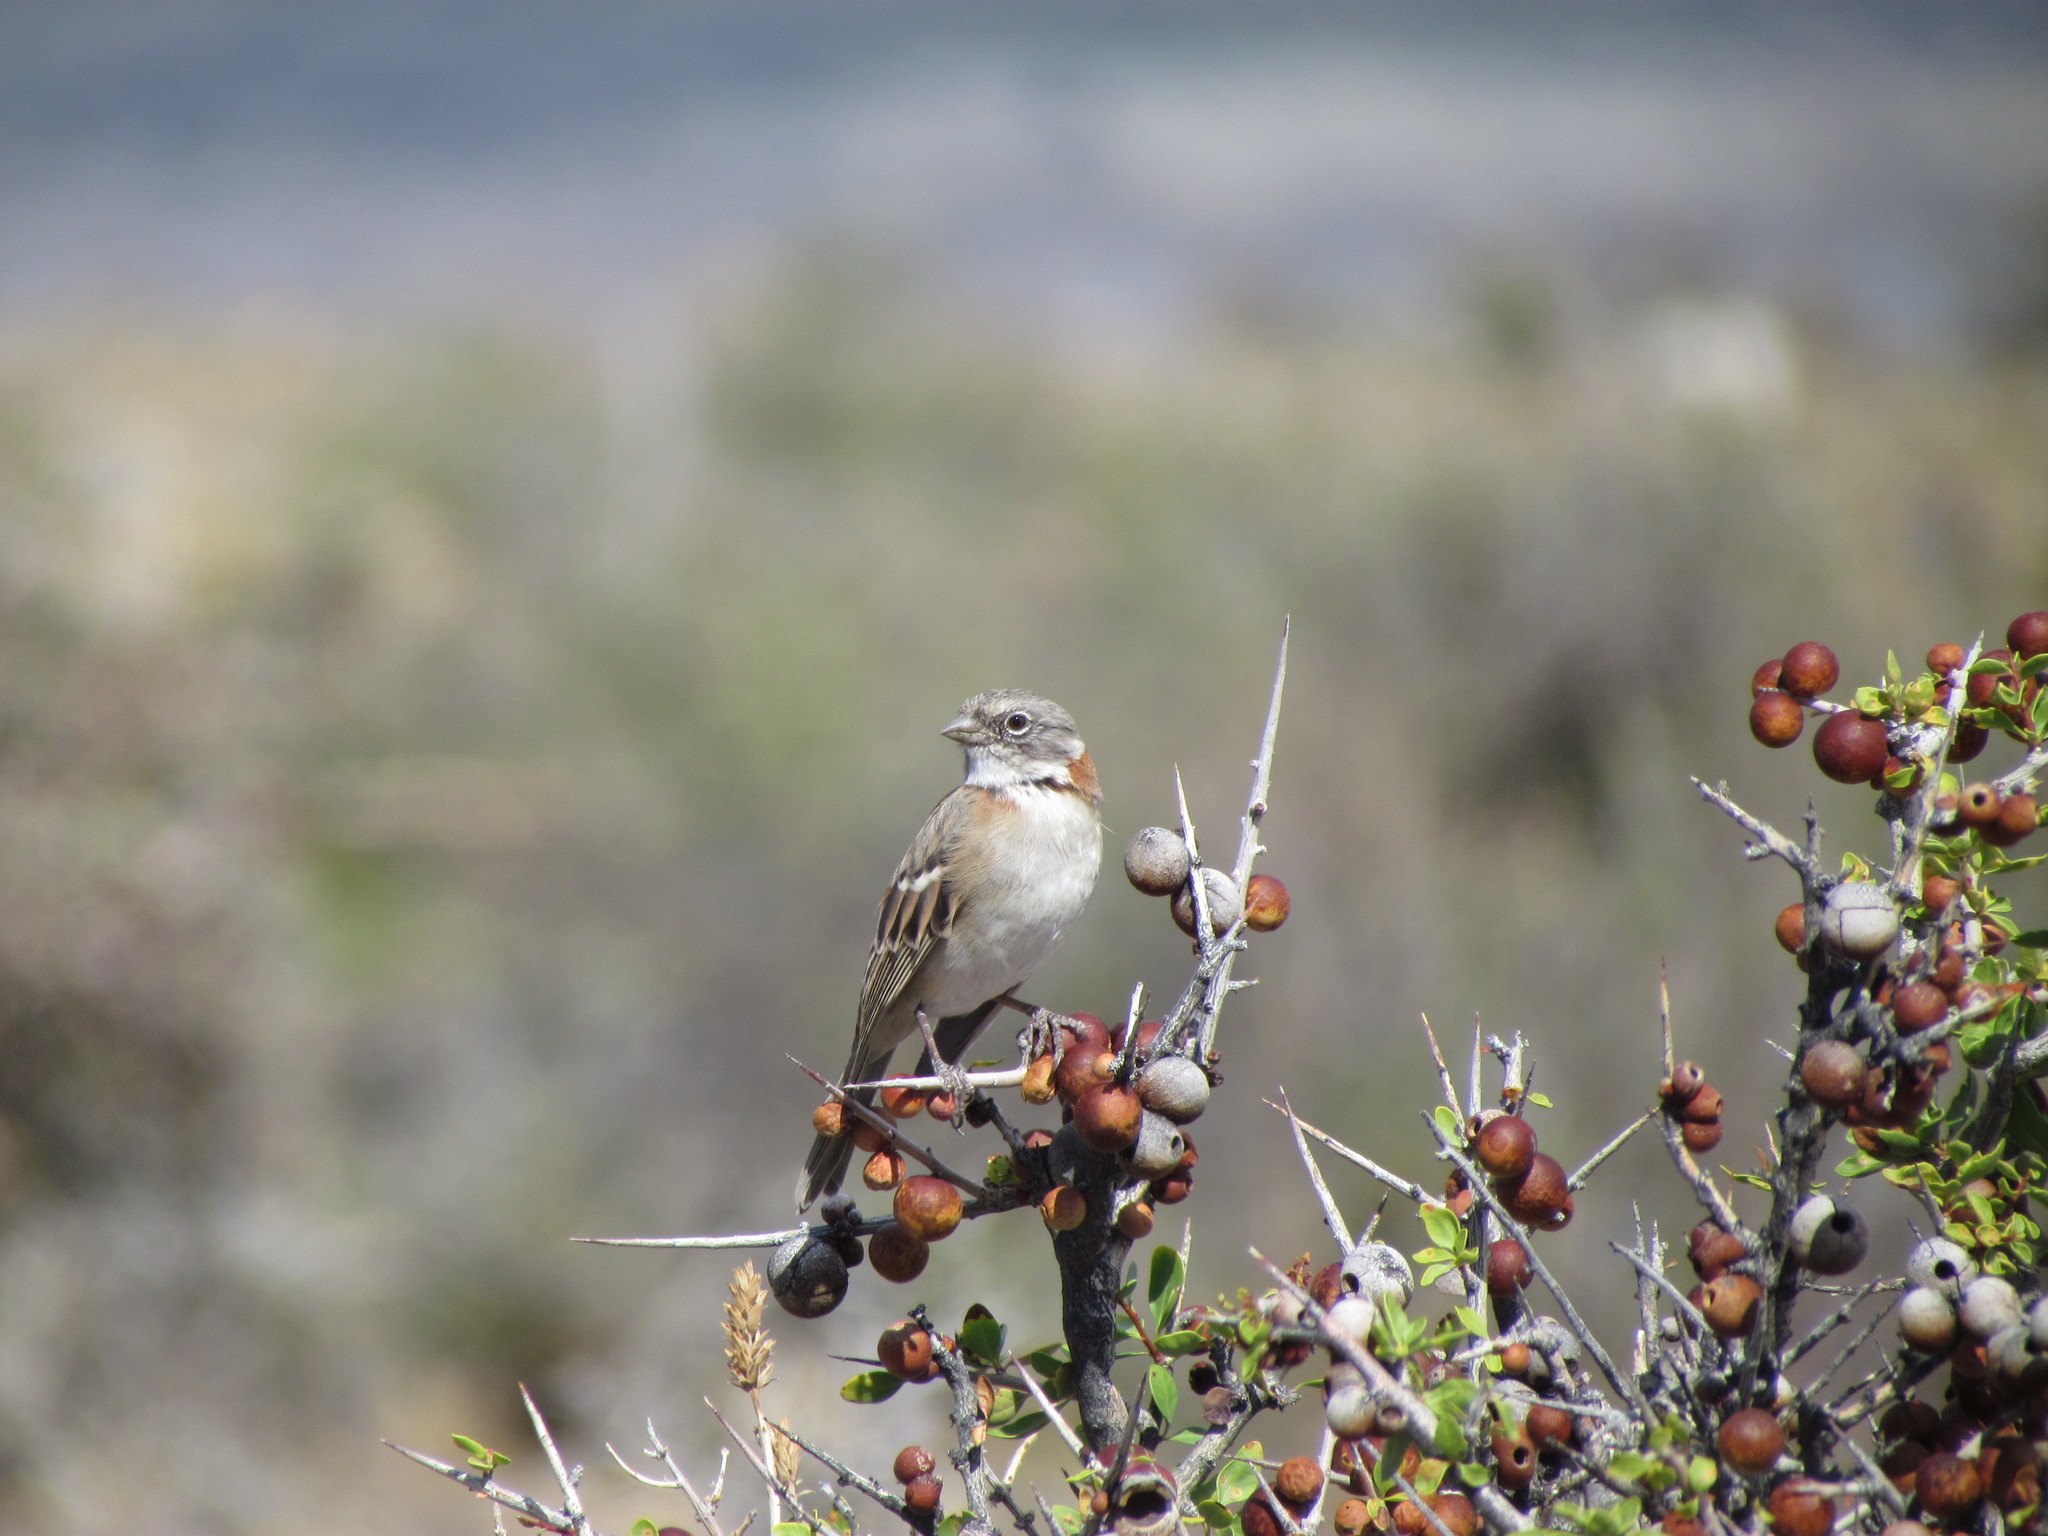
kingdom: Animalia
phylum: Chordata
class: Aves
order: Passeriformes
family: Passerellidae
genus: Zonotrichia
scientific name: Zonotrichia capensis
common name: Rufous-collared sparrow
